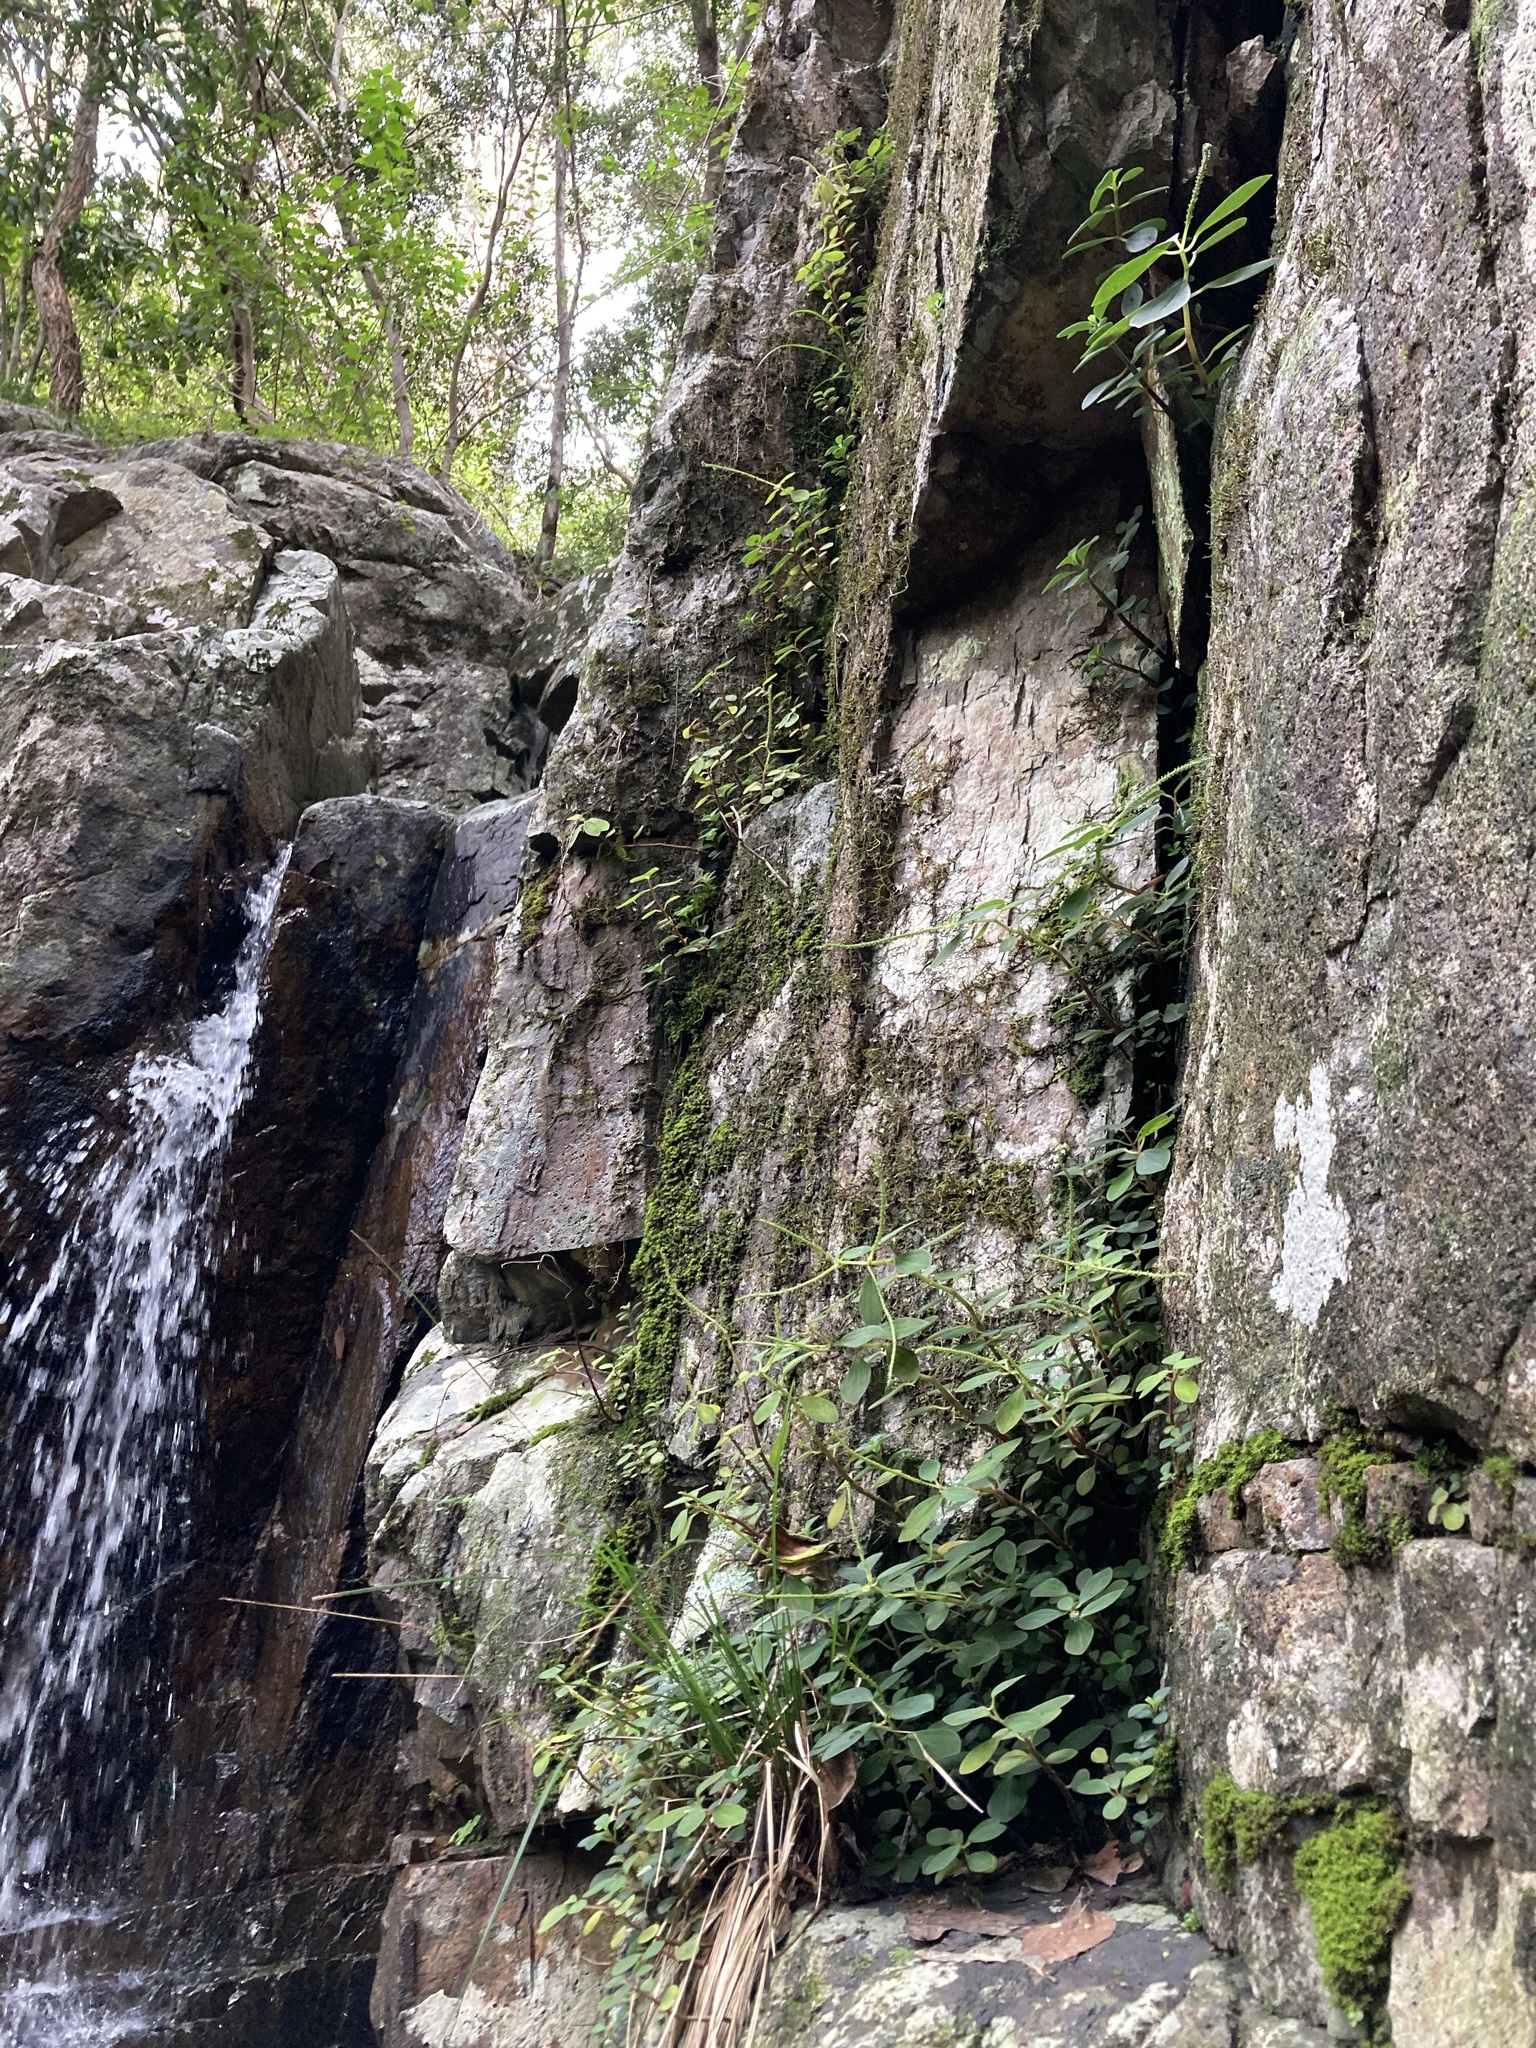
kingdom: Plantae
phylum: Tracheophyta
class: Magnoliopsida
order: Piperales
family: Piperaceae
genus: Peperomia
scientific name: Peperomia leptostachya
